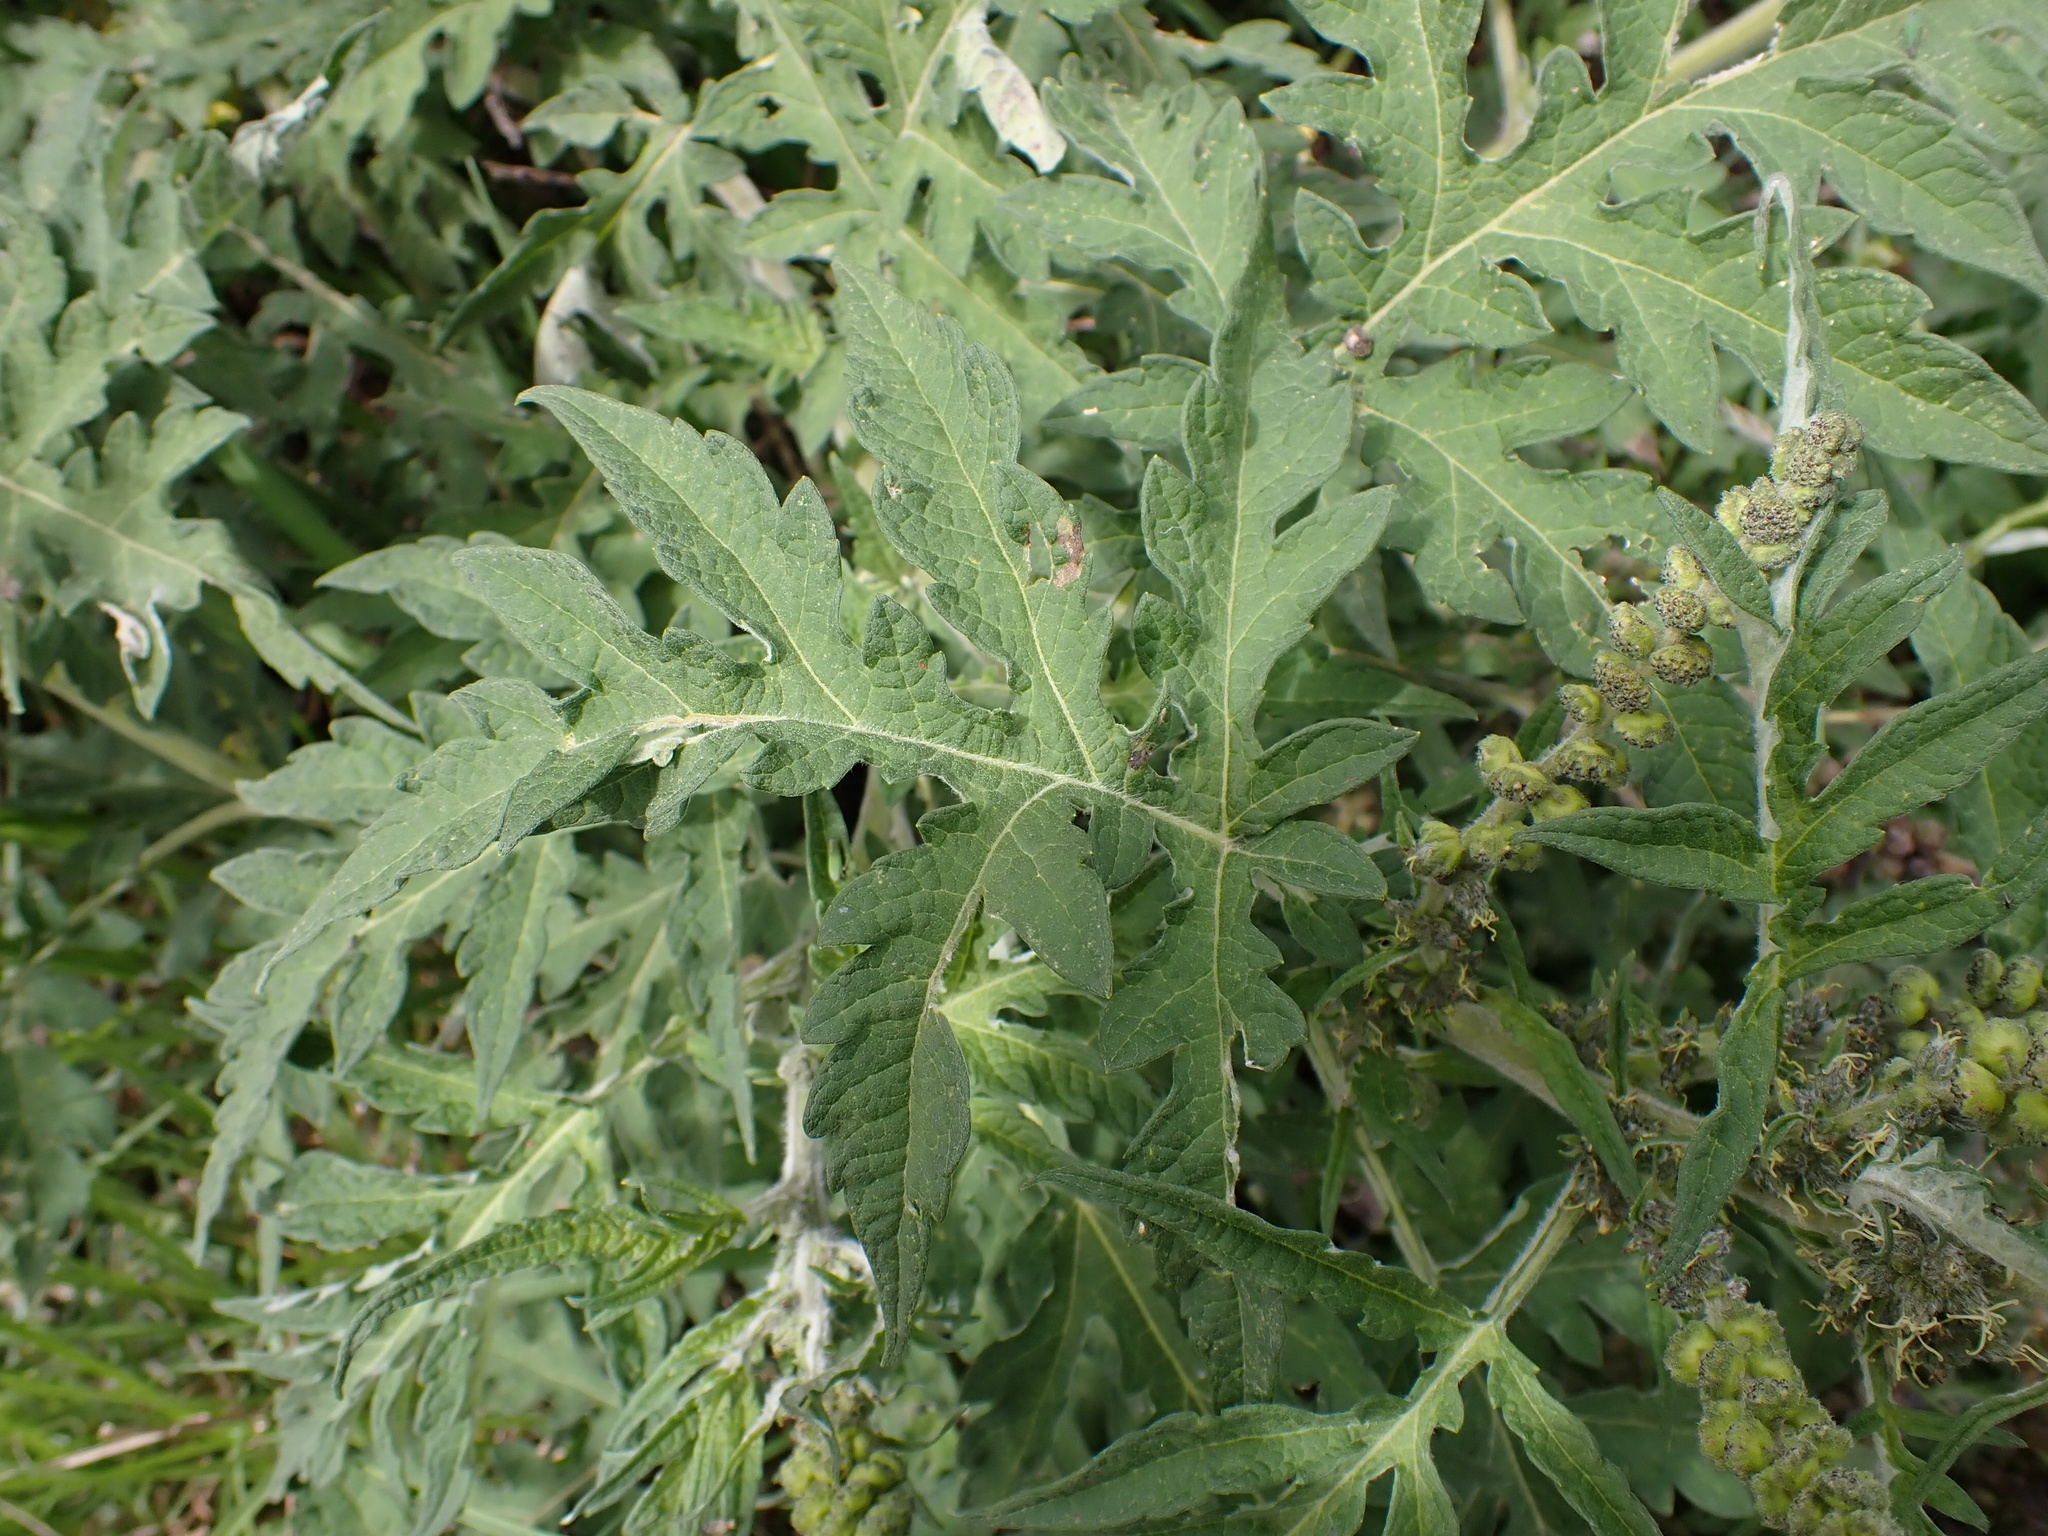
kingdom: Plantae
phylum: Tracheophyta
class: Magnoliopsida
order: Asterales
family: Asteraceae
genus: Ambrosia
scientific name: Ambrosia arborescens
